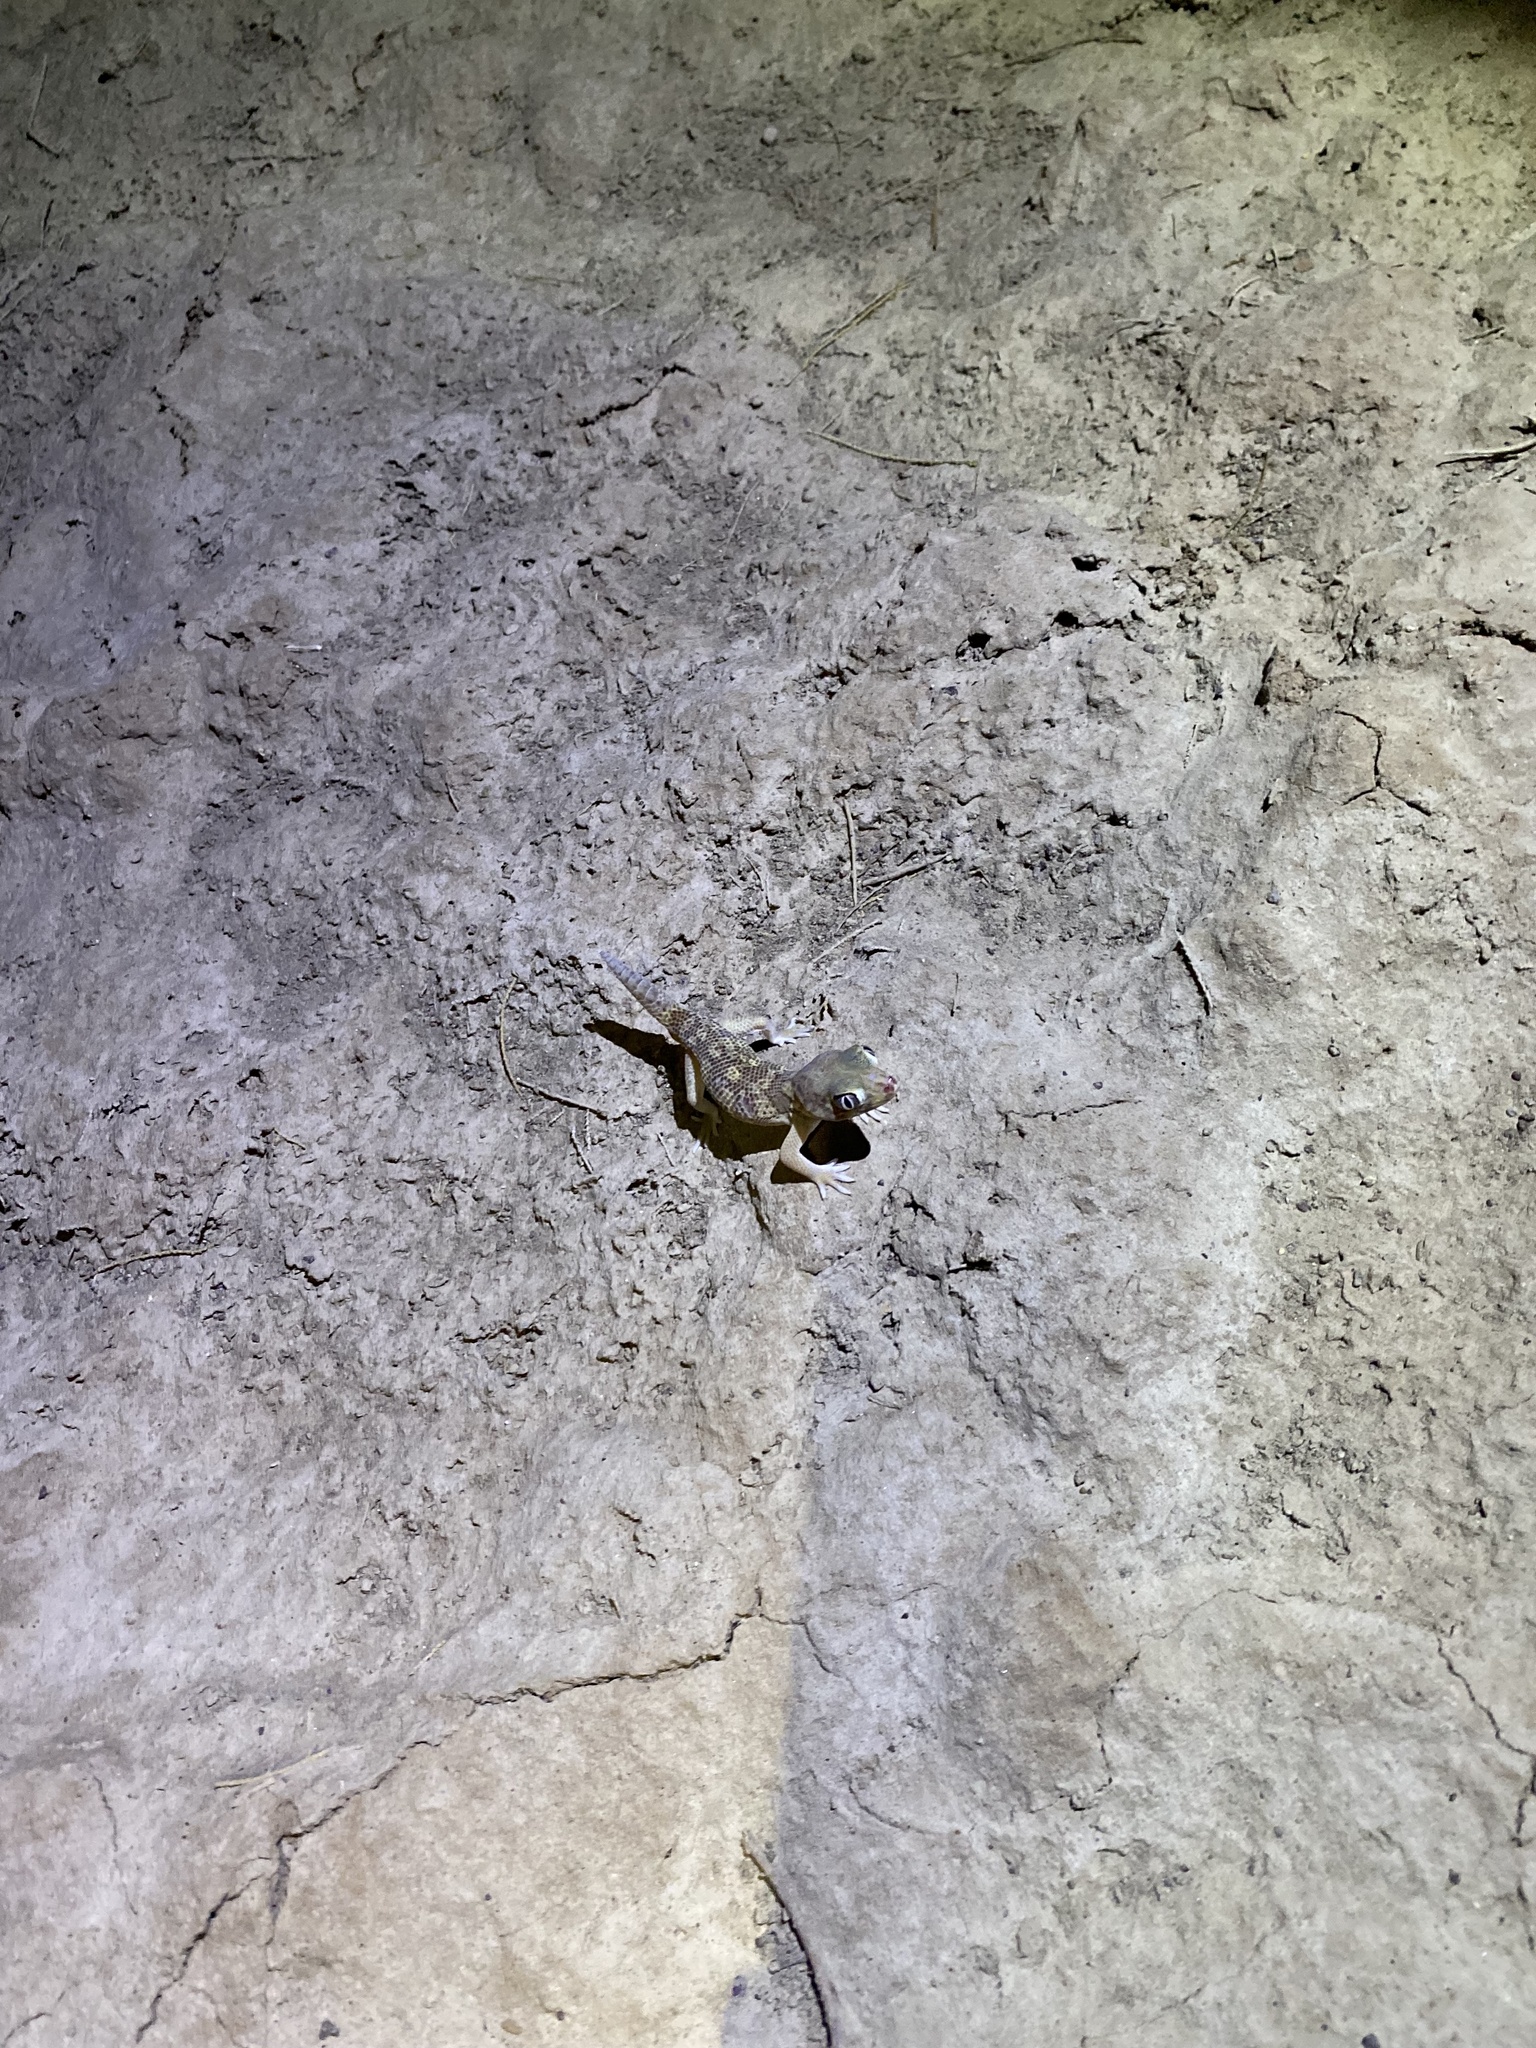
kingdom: Animalia
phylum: Chordata
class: Squamata
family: Sphaerodactylidae
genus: Teratoscincus
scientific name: Teratoscincus bedriagai
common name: Bedriaga's plate-tailed gecko
